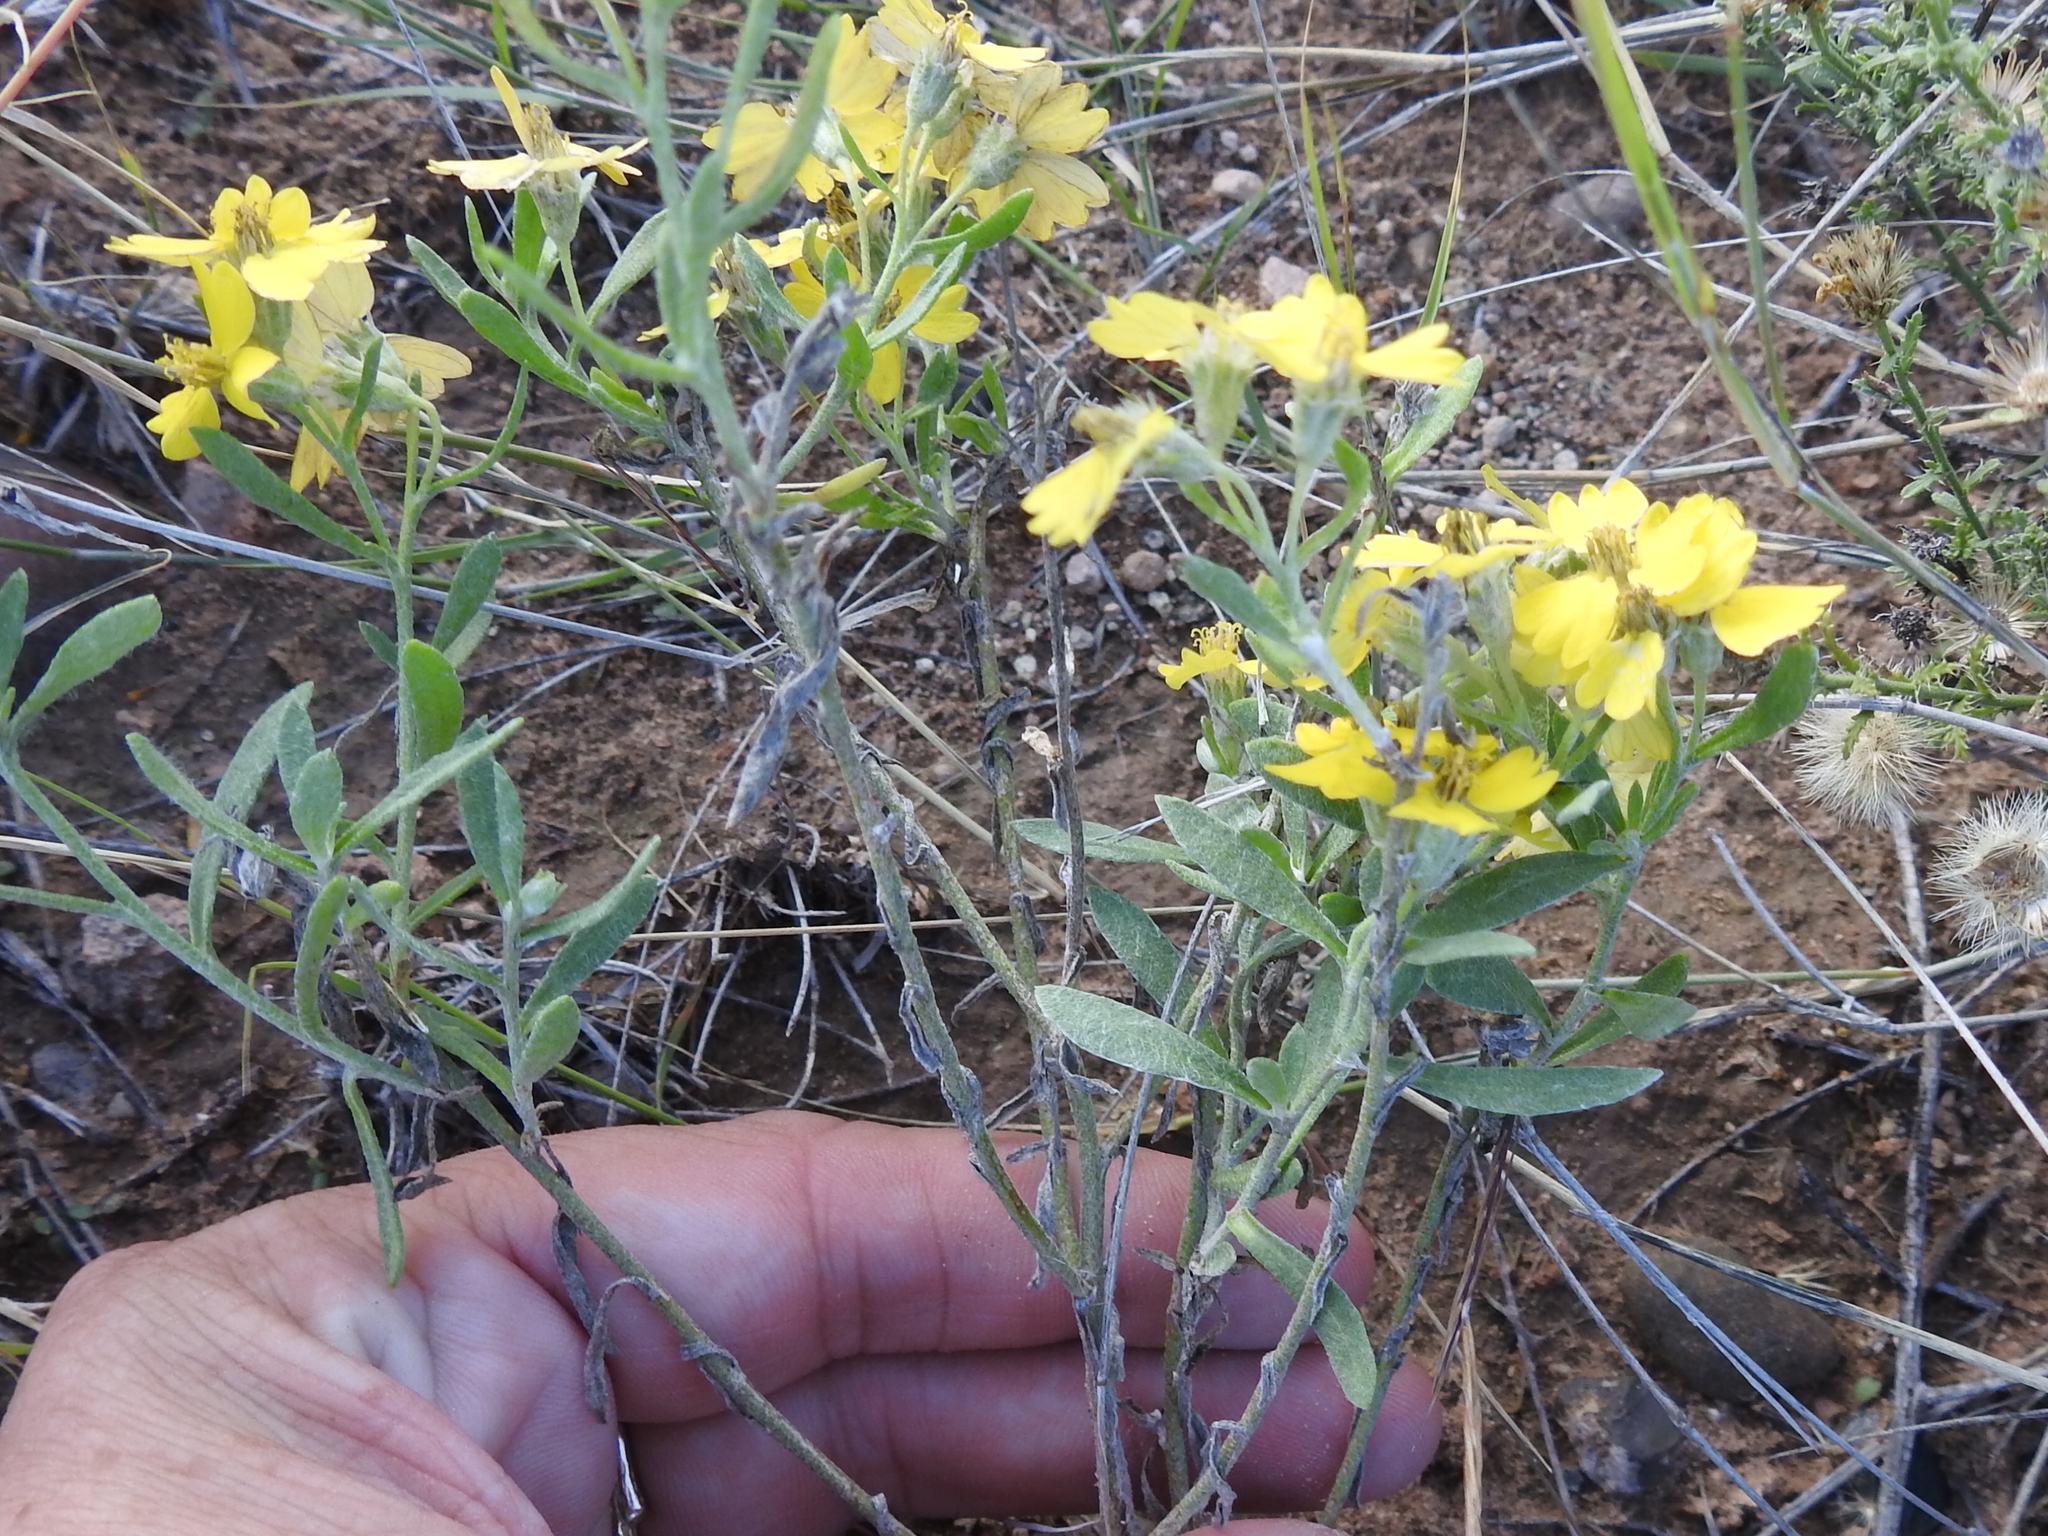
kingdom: Plantae
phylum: Tracheophyta
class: Magnoliopsida
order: Asterales
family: Asteraceae
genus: Psilostrophe
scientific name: Psilostrophe tagetina
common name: Marigold paper-flower
